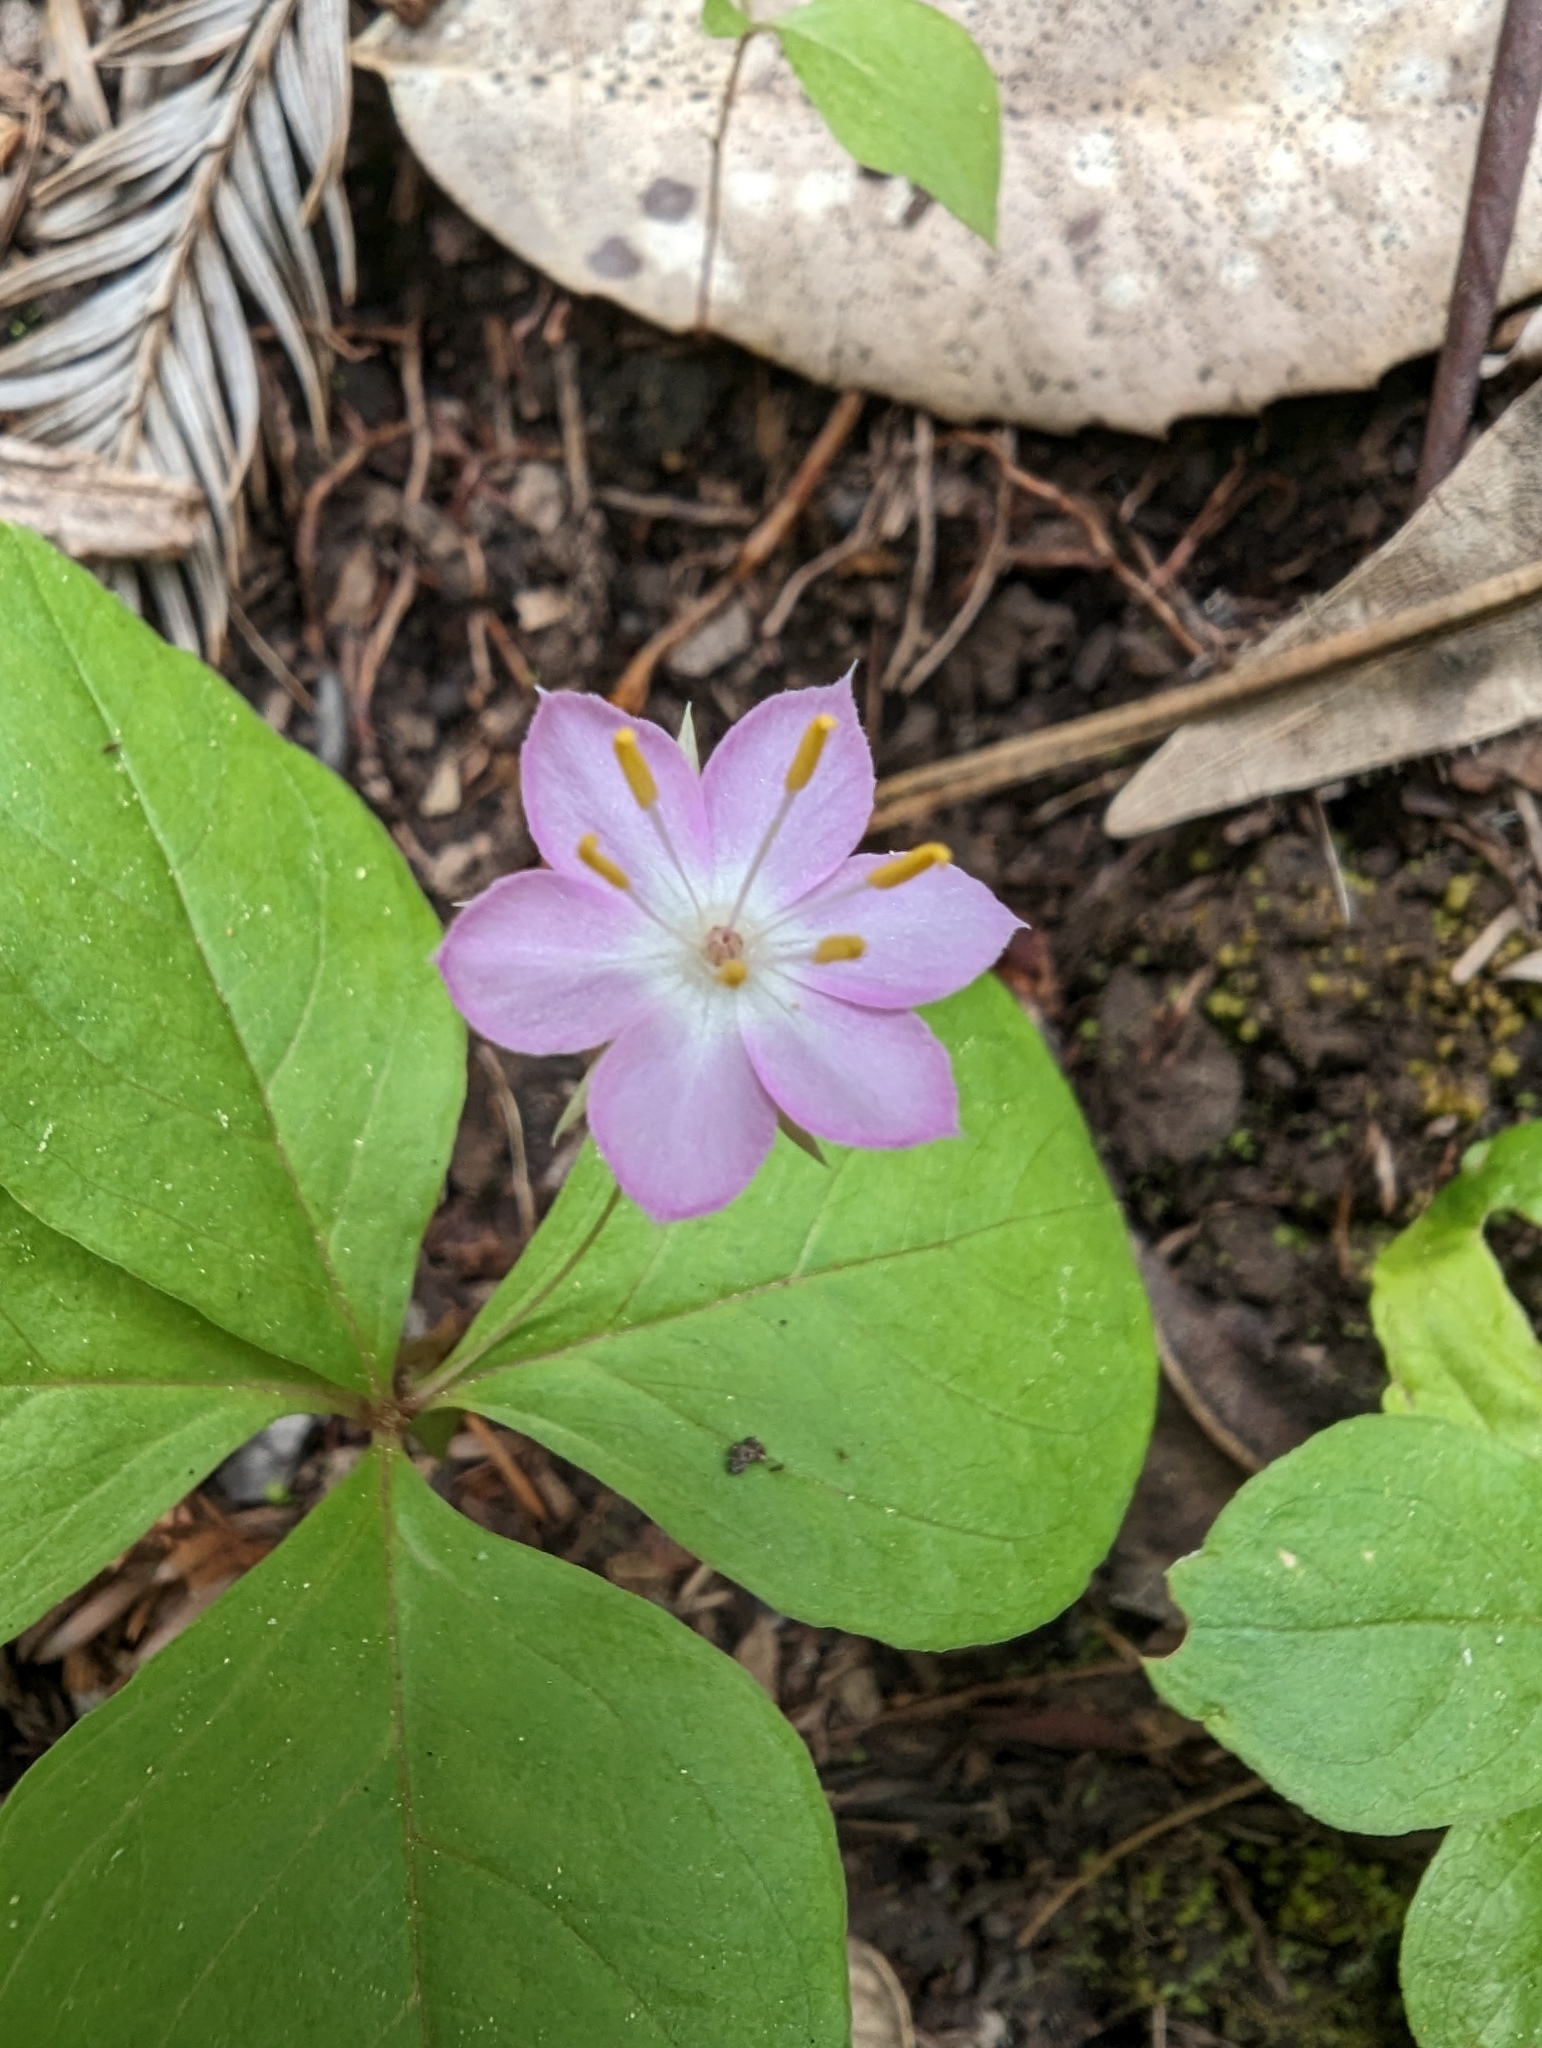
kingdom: Plantae
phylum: Tracheophyta
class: Magnoliopsida
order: Ericales
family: Primulaceae
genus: Lysimachia
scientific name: Lysimachia latifolia
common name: Pacific starflower
